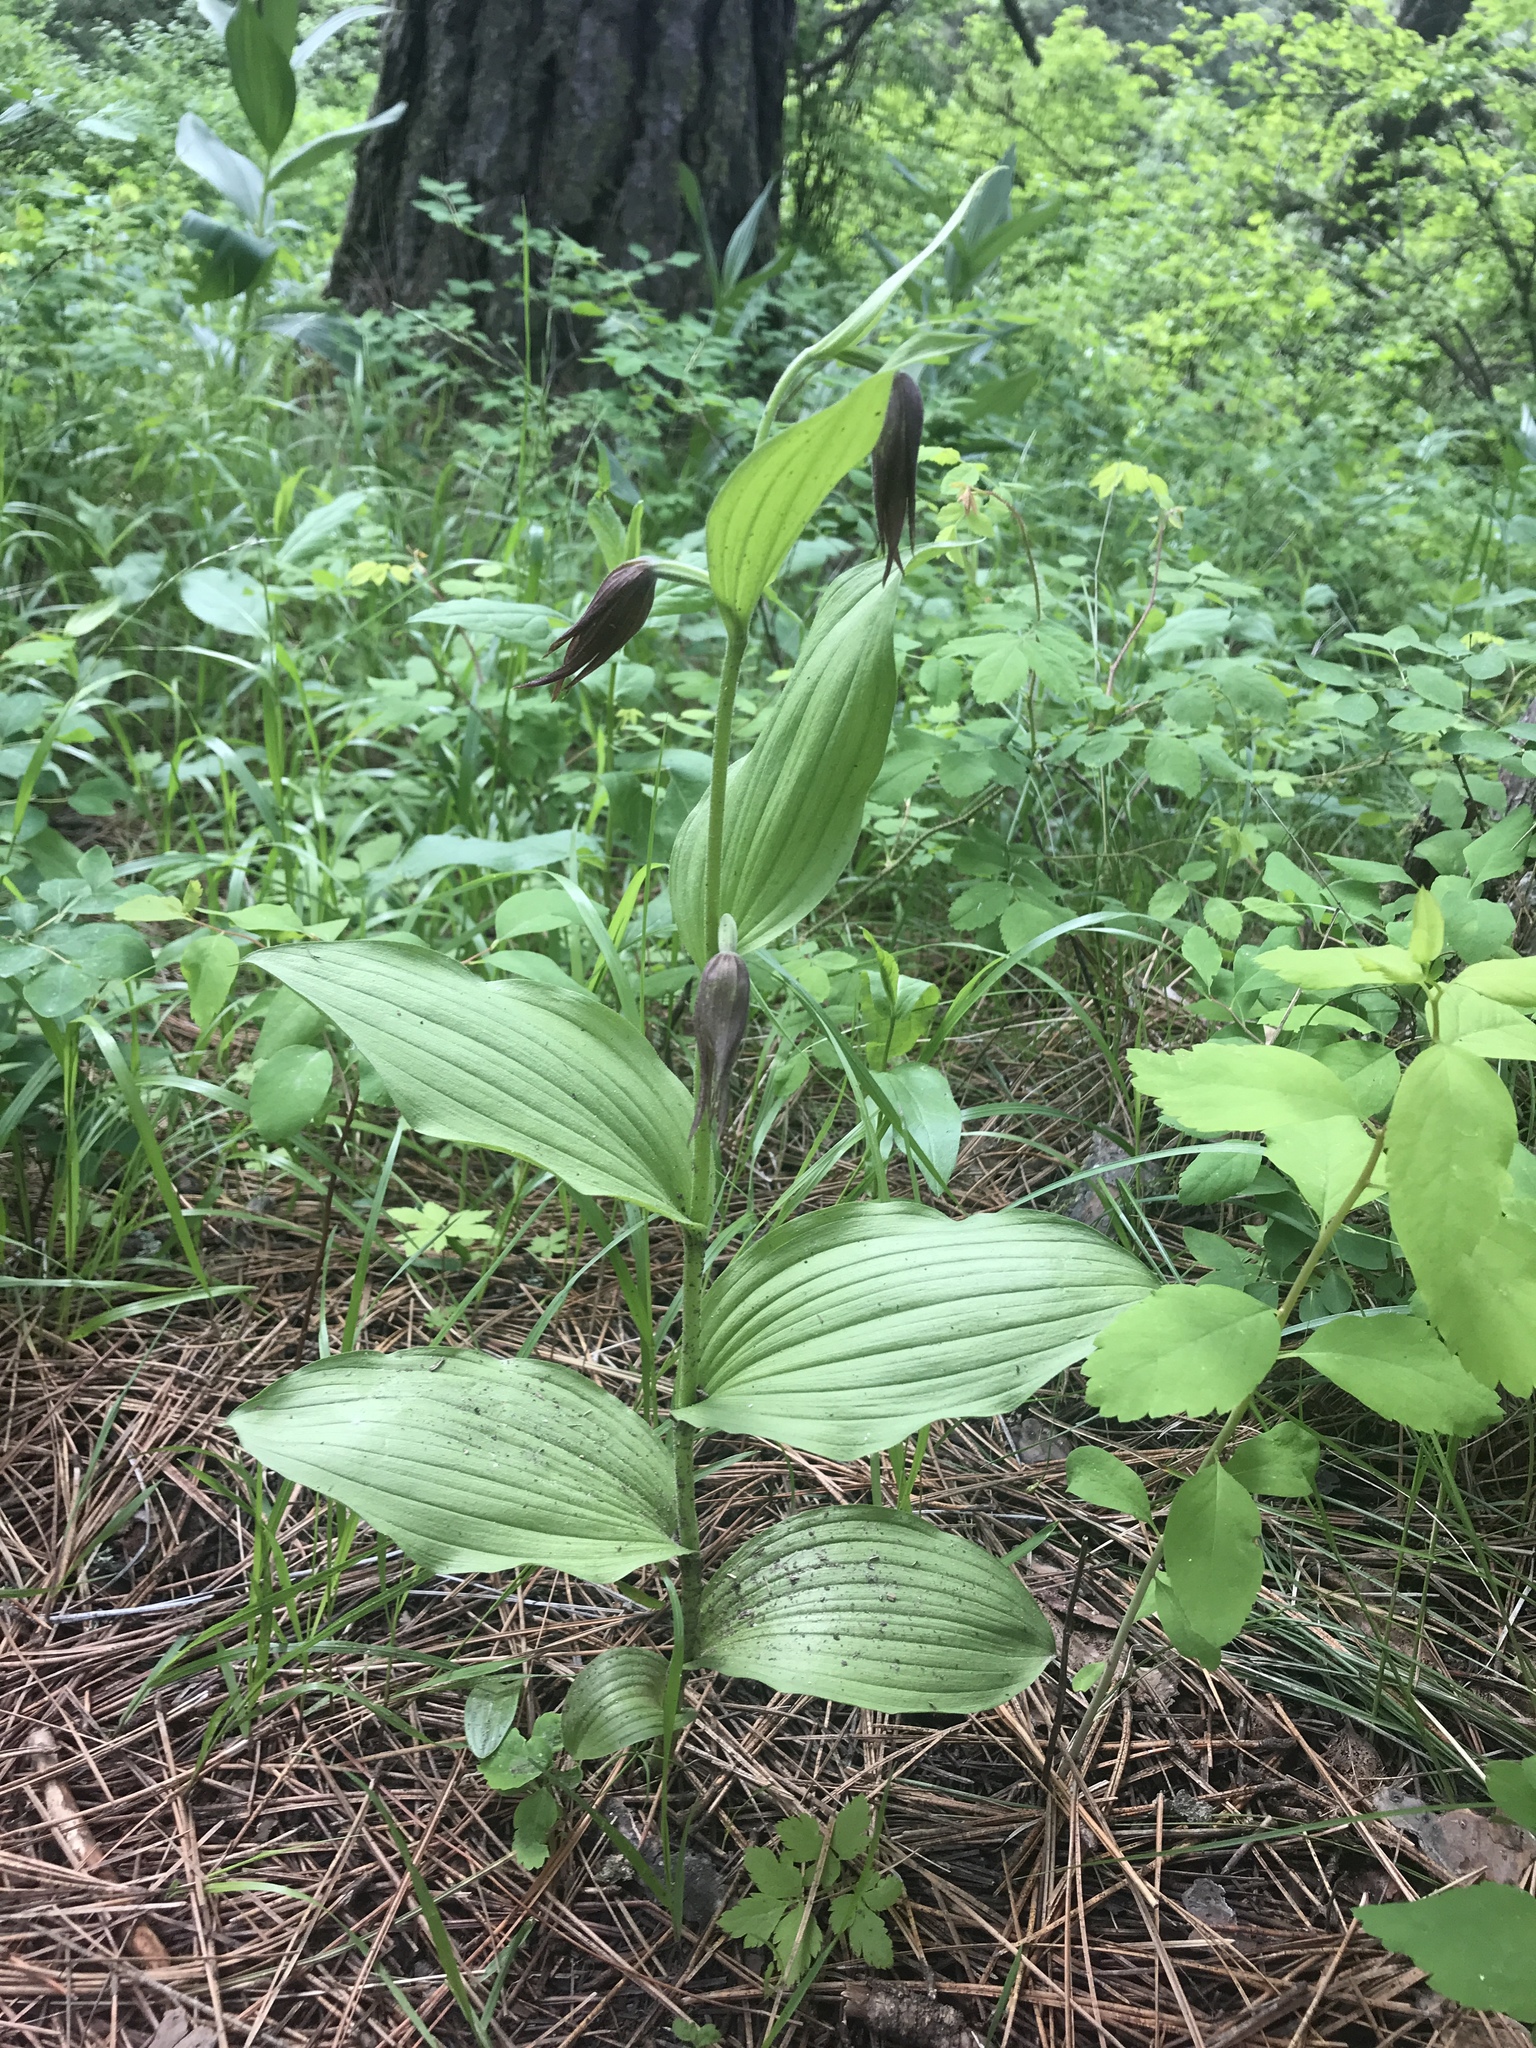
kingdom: Plantae
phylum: Tracheophyta
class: Liliopsida
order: Asparagales
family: Orchidaceae
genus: Cypripedium
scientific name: Cypripedium montanum
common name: Mountain lady's-slipper
